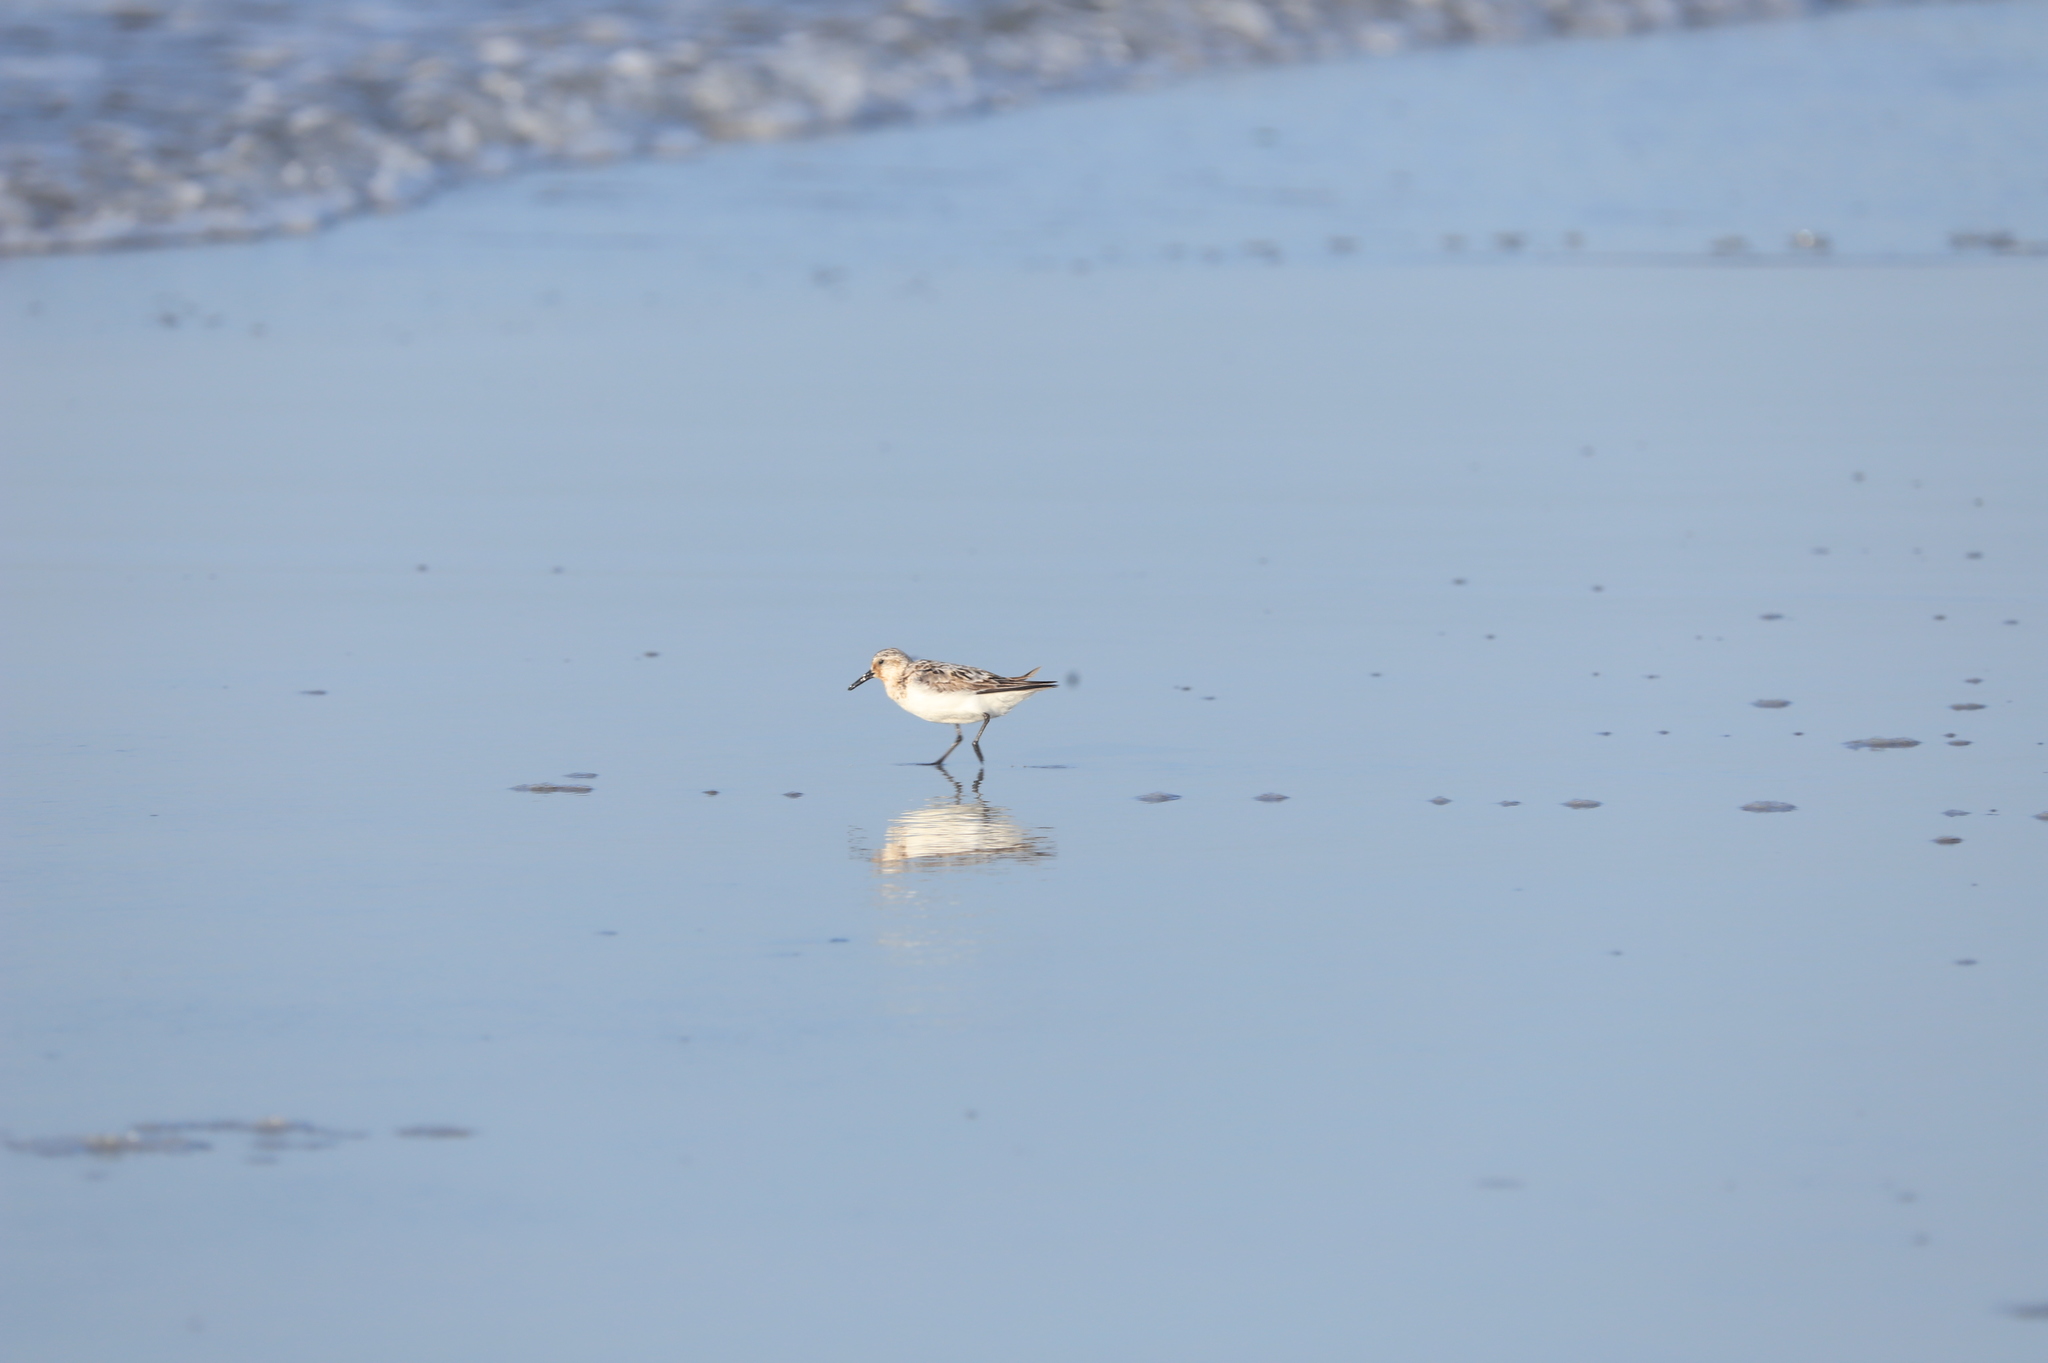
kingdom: Animalia
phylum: Chordata
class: Aves
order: Charadriiformes
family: Scolopacidae
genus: Calidris
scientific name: Calidris alba
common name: Sanderling
